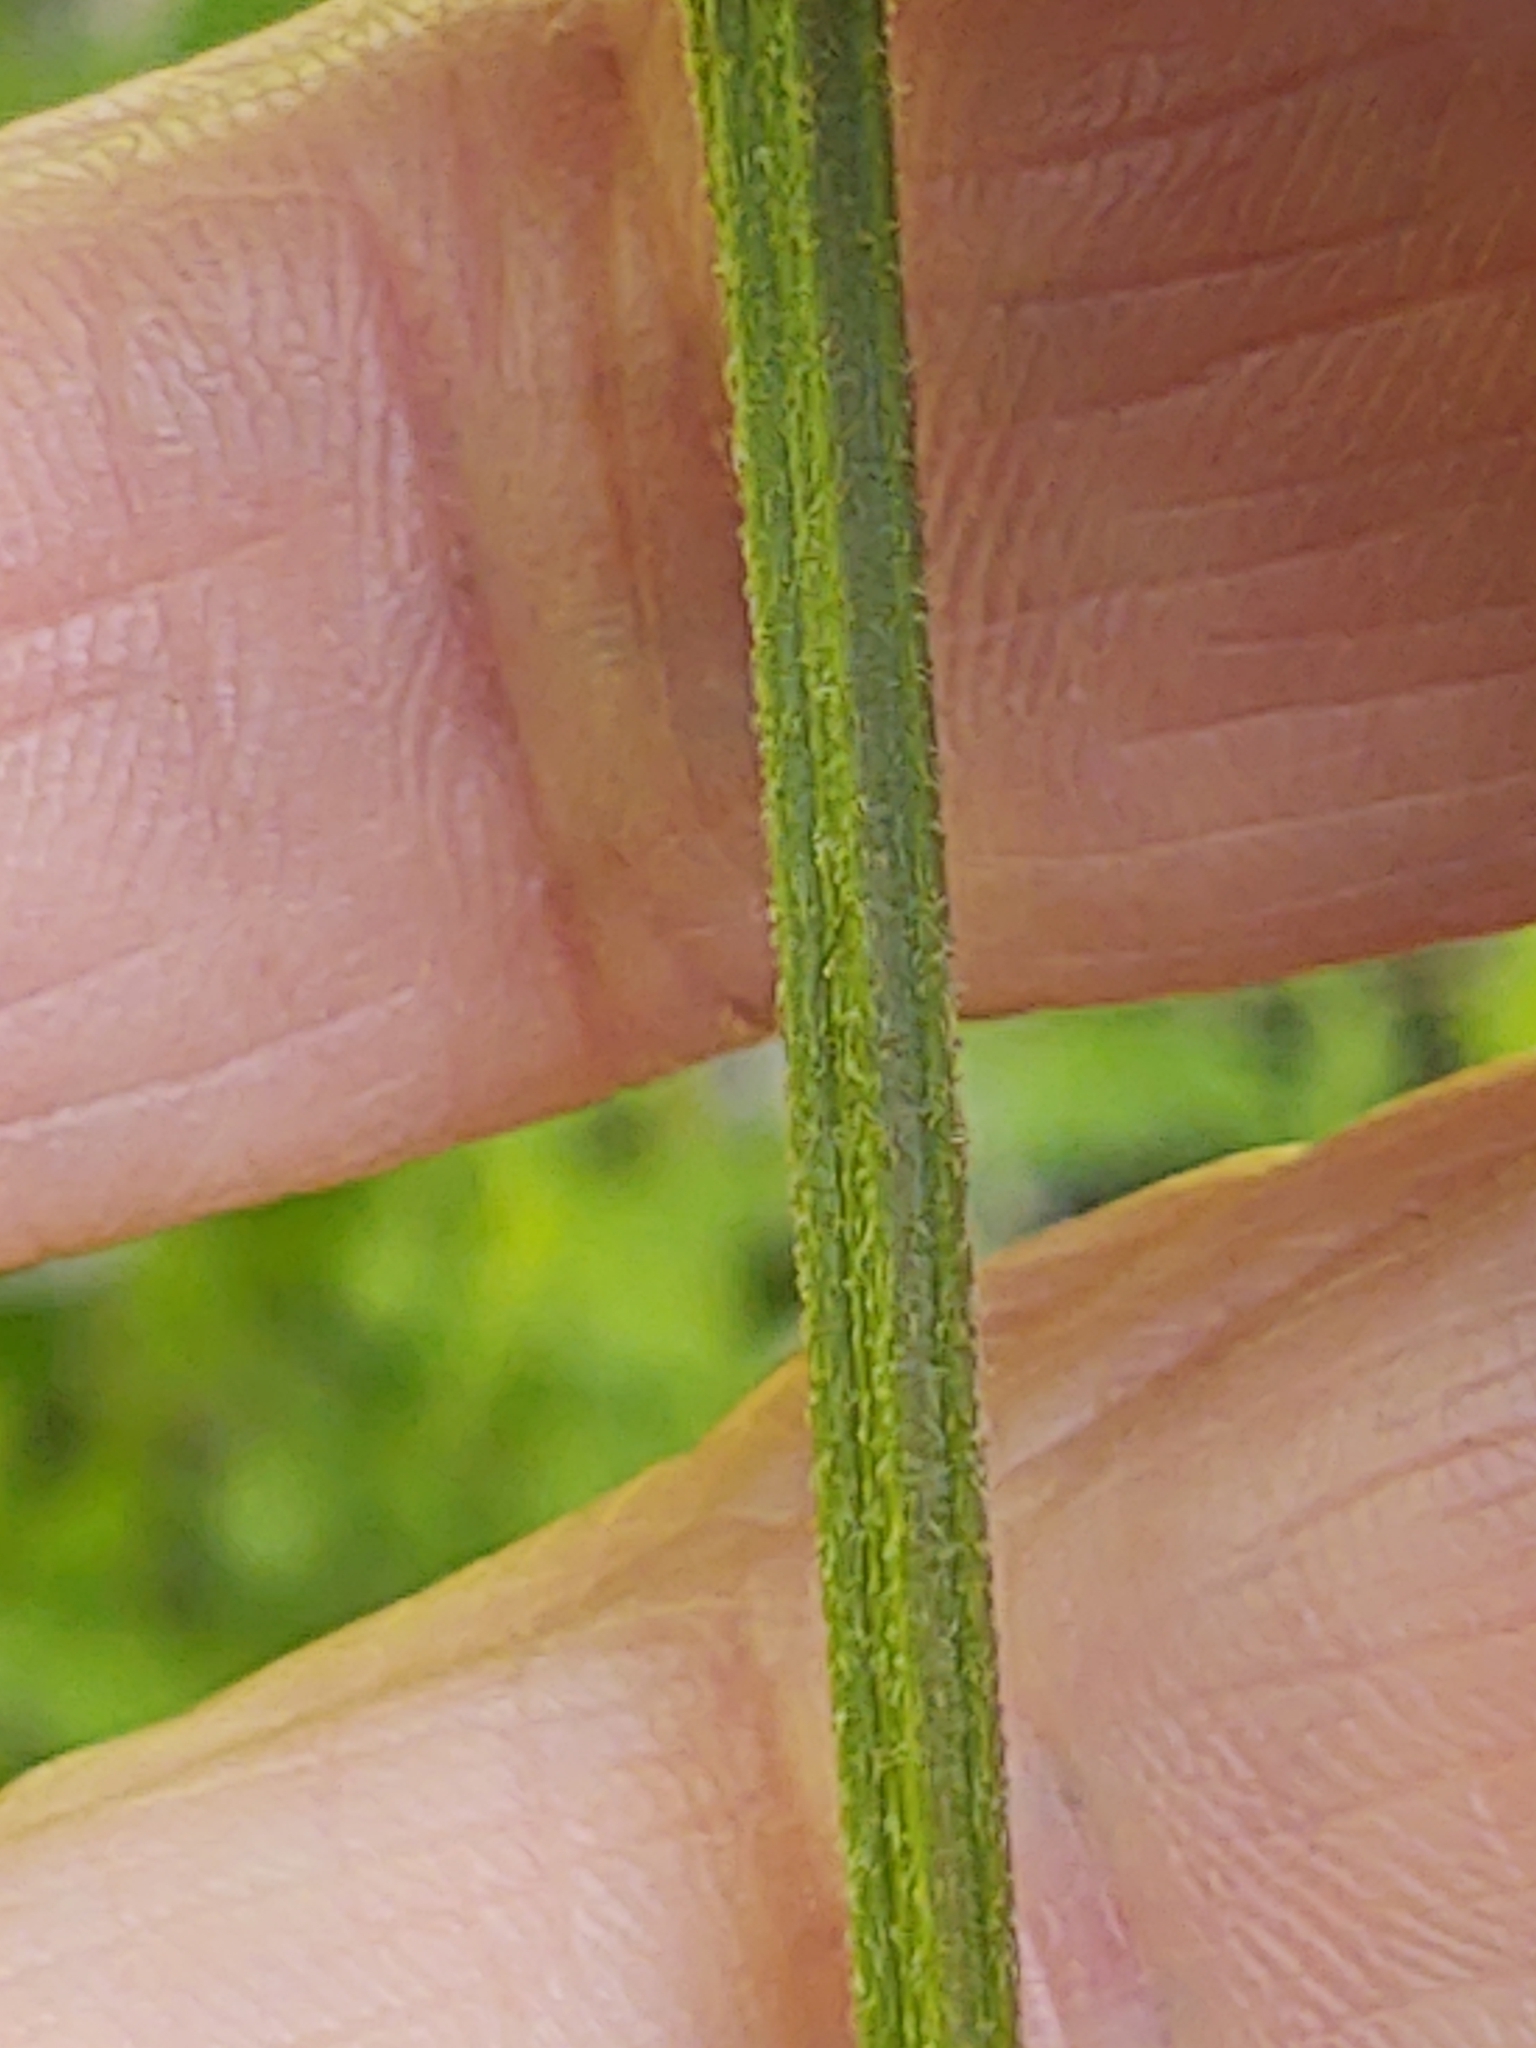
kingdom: Plantae
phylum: Tracheophyta
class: Magnoliopsida
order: Caryophyllales
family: Caryophyllaceae
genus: Silene
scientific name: Silene flos-cuculi
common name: Ragged-robin
